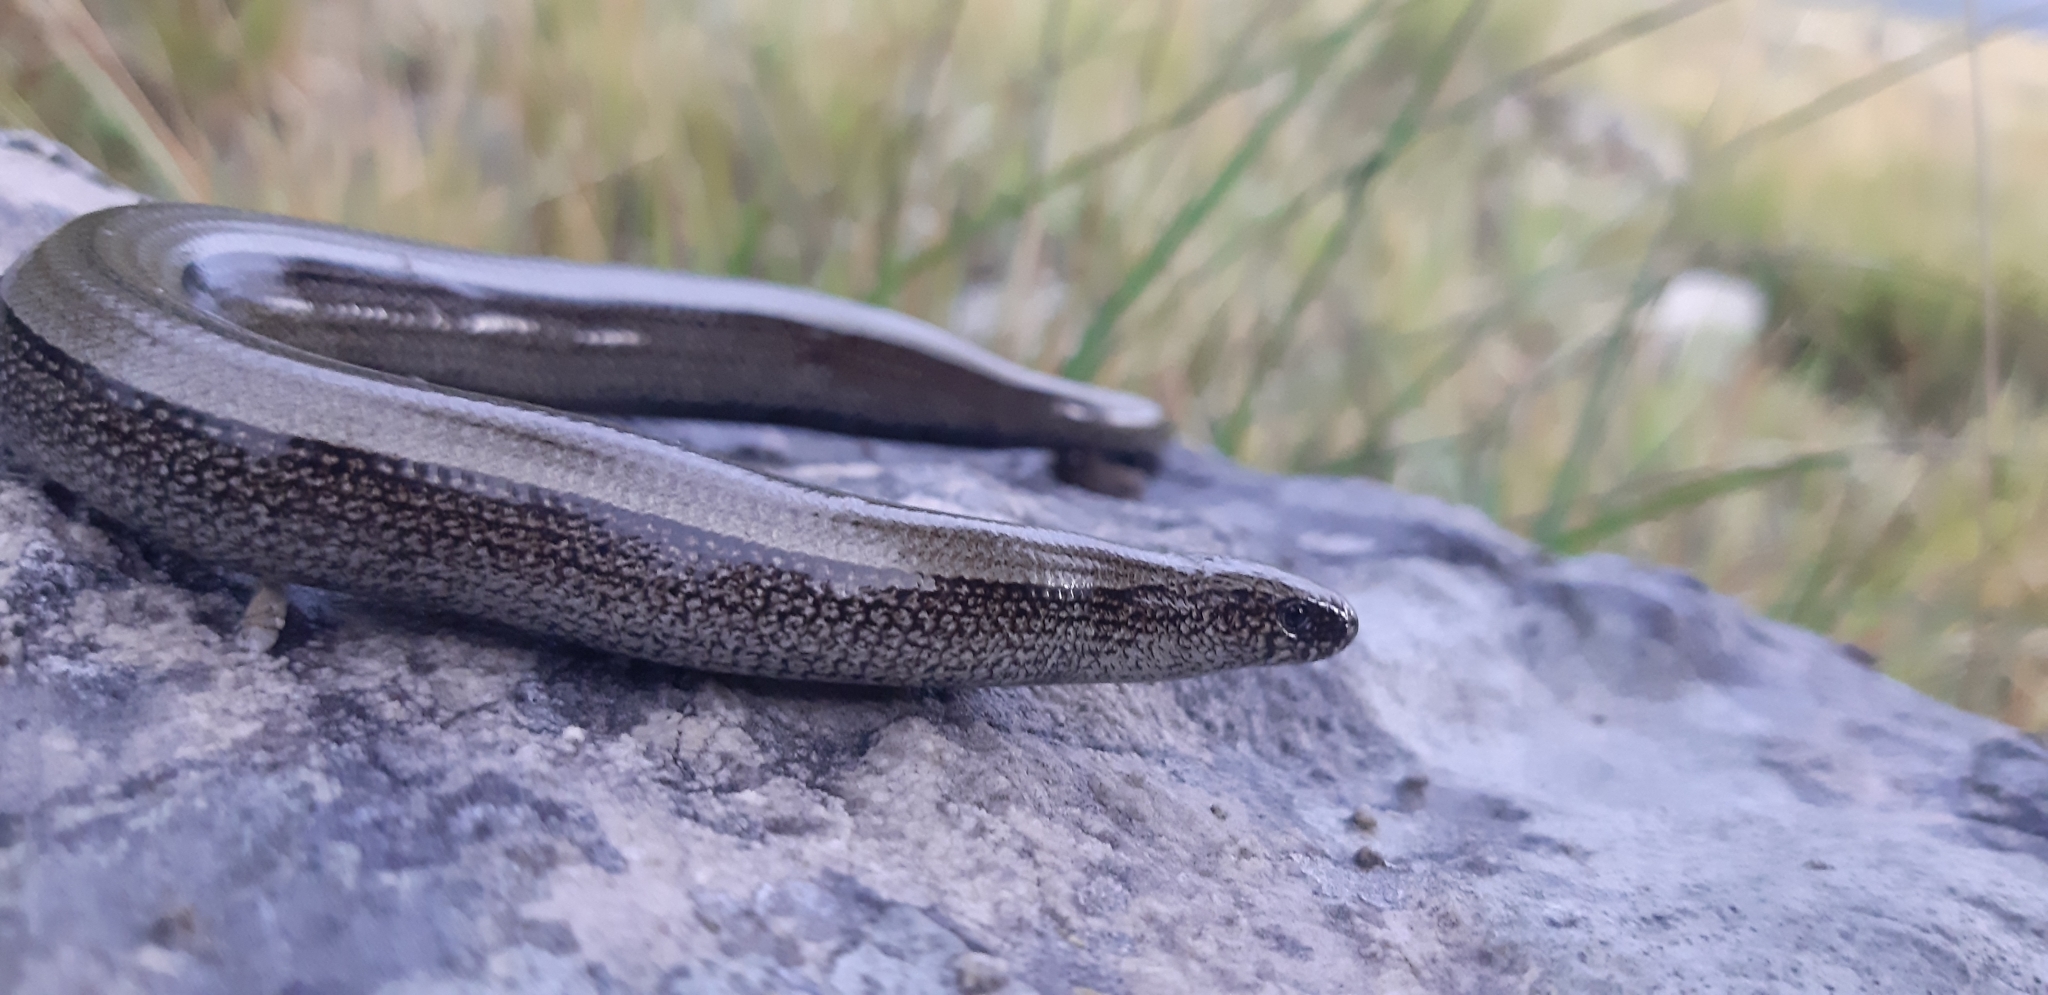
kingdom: Animalia
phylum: Chordata
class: Squamata
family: Anguidae
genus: Anguis
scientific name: Anguis veronensis
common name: Italian slow worm
